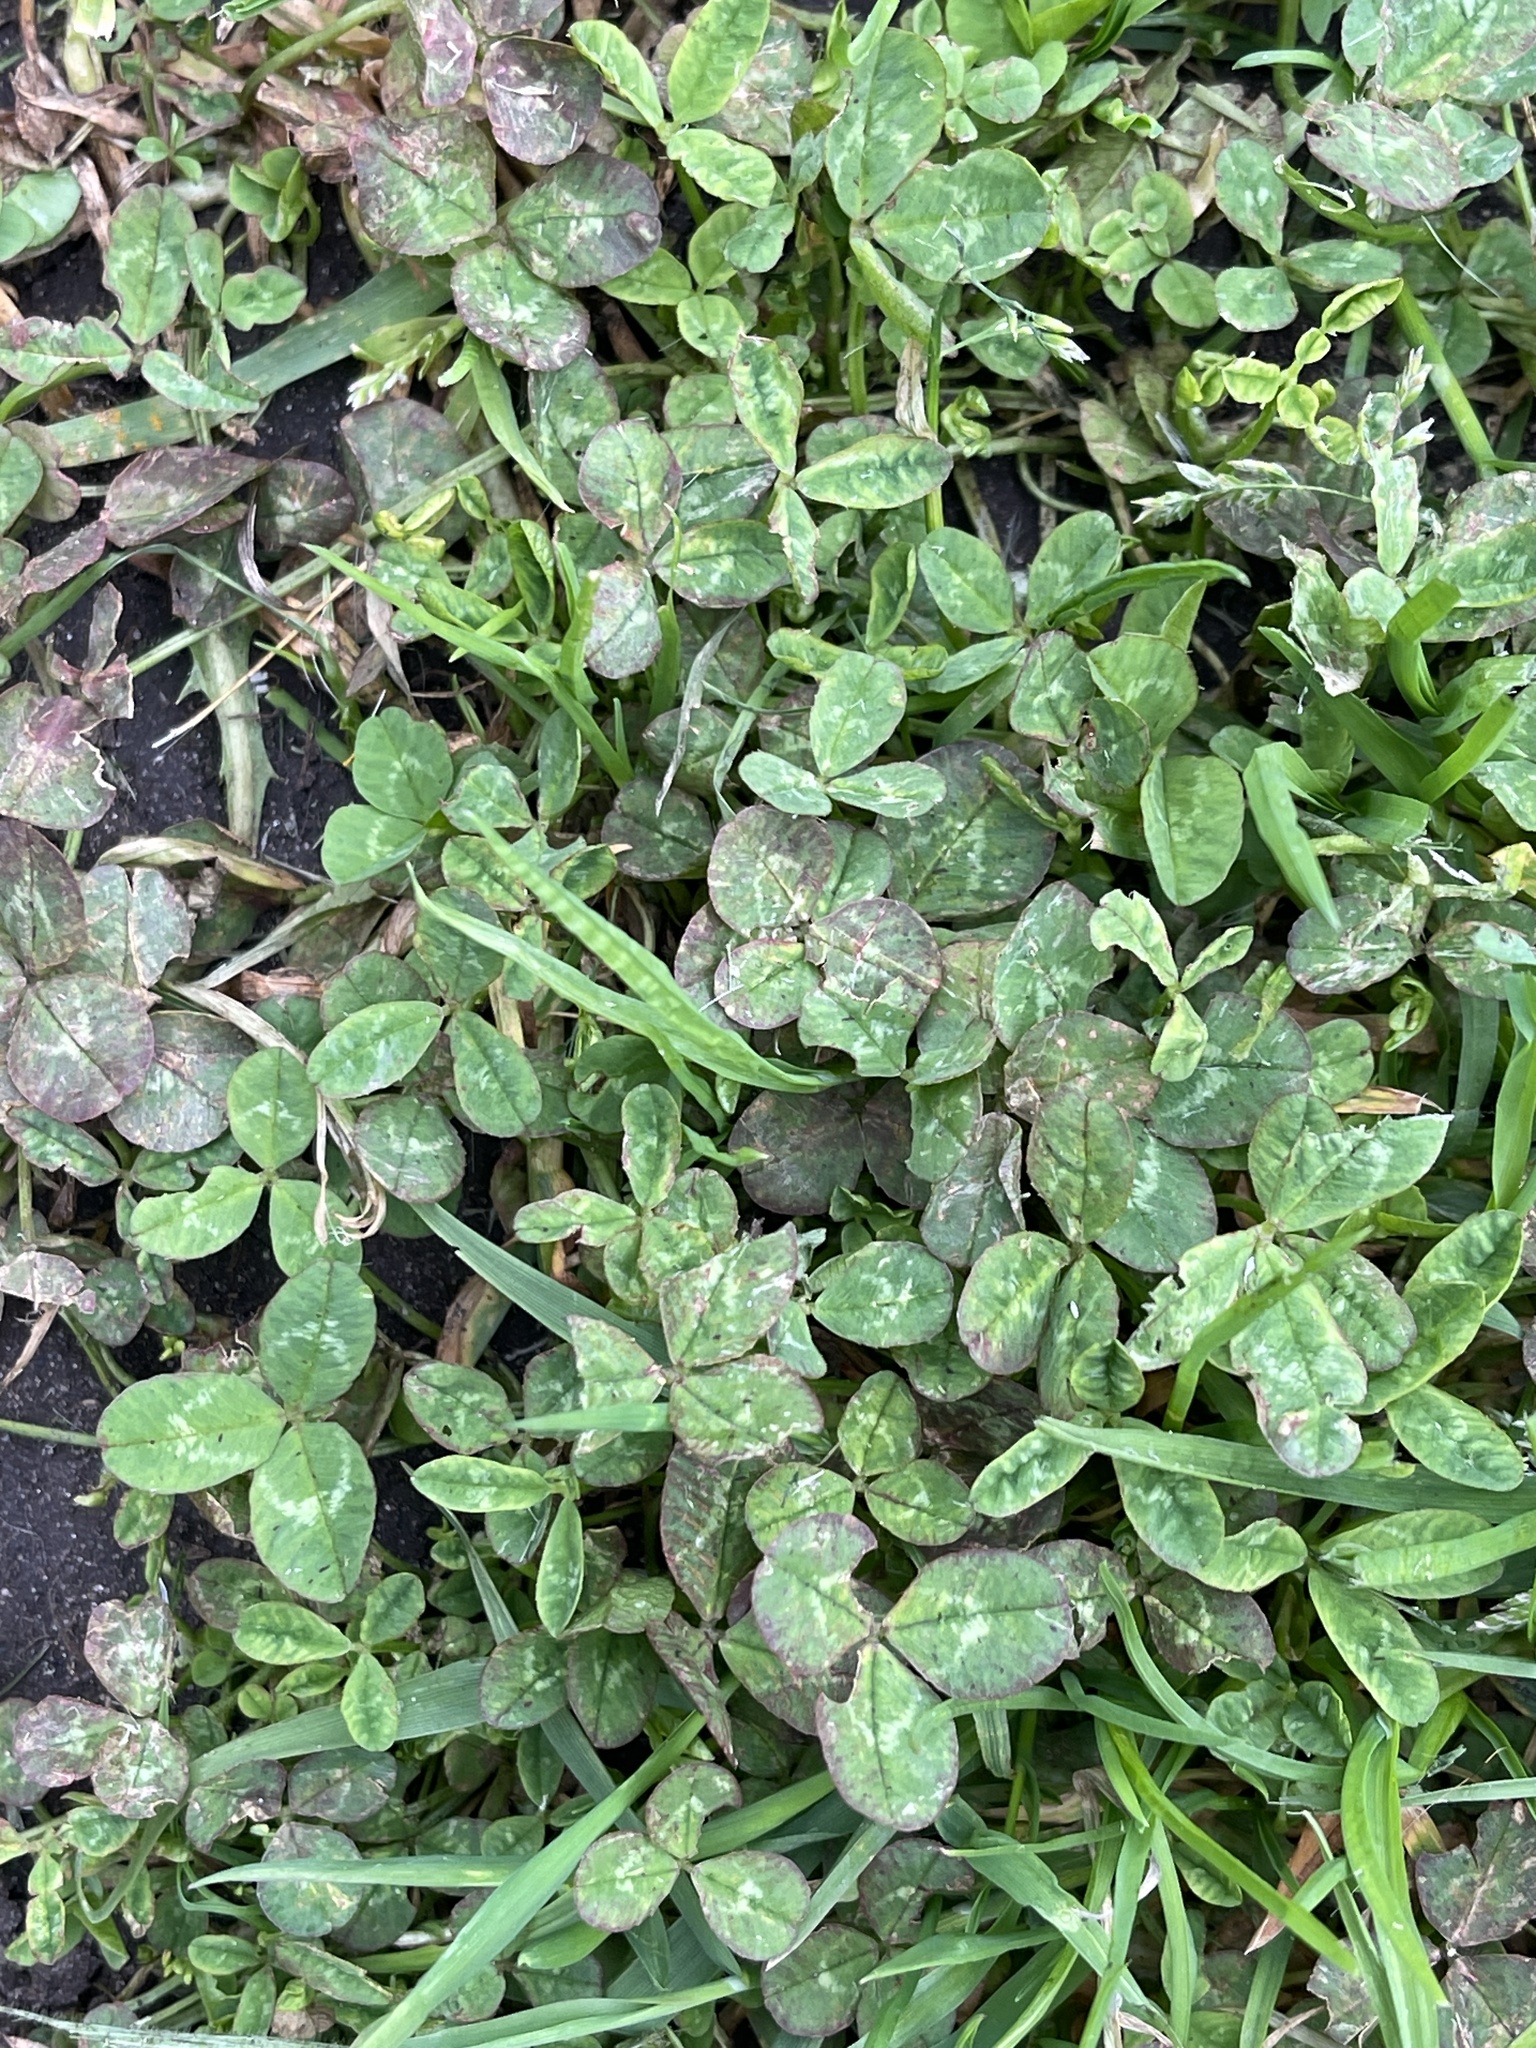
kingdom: Plantae
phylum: Tracheophyta
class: Magnoliopsida
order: Fabales
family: Fabaceae
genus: Trifolium
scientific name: Trifolium repens
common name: White clover
